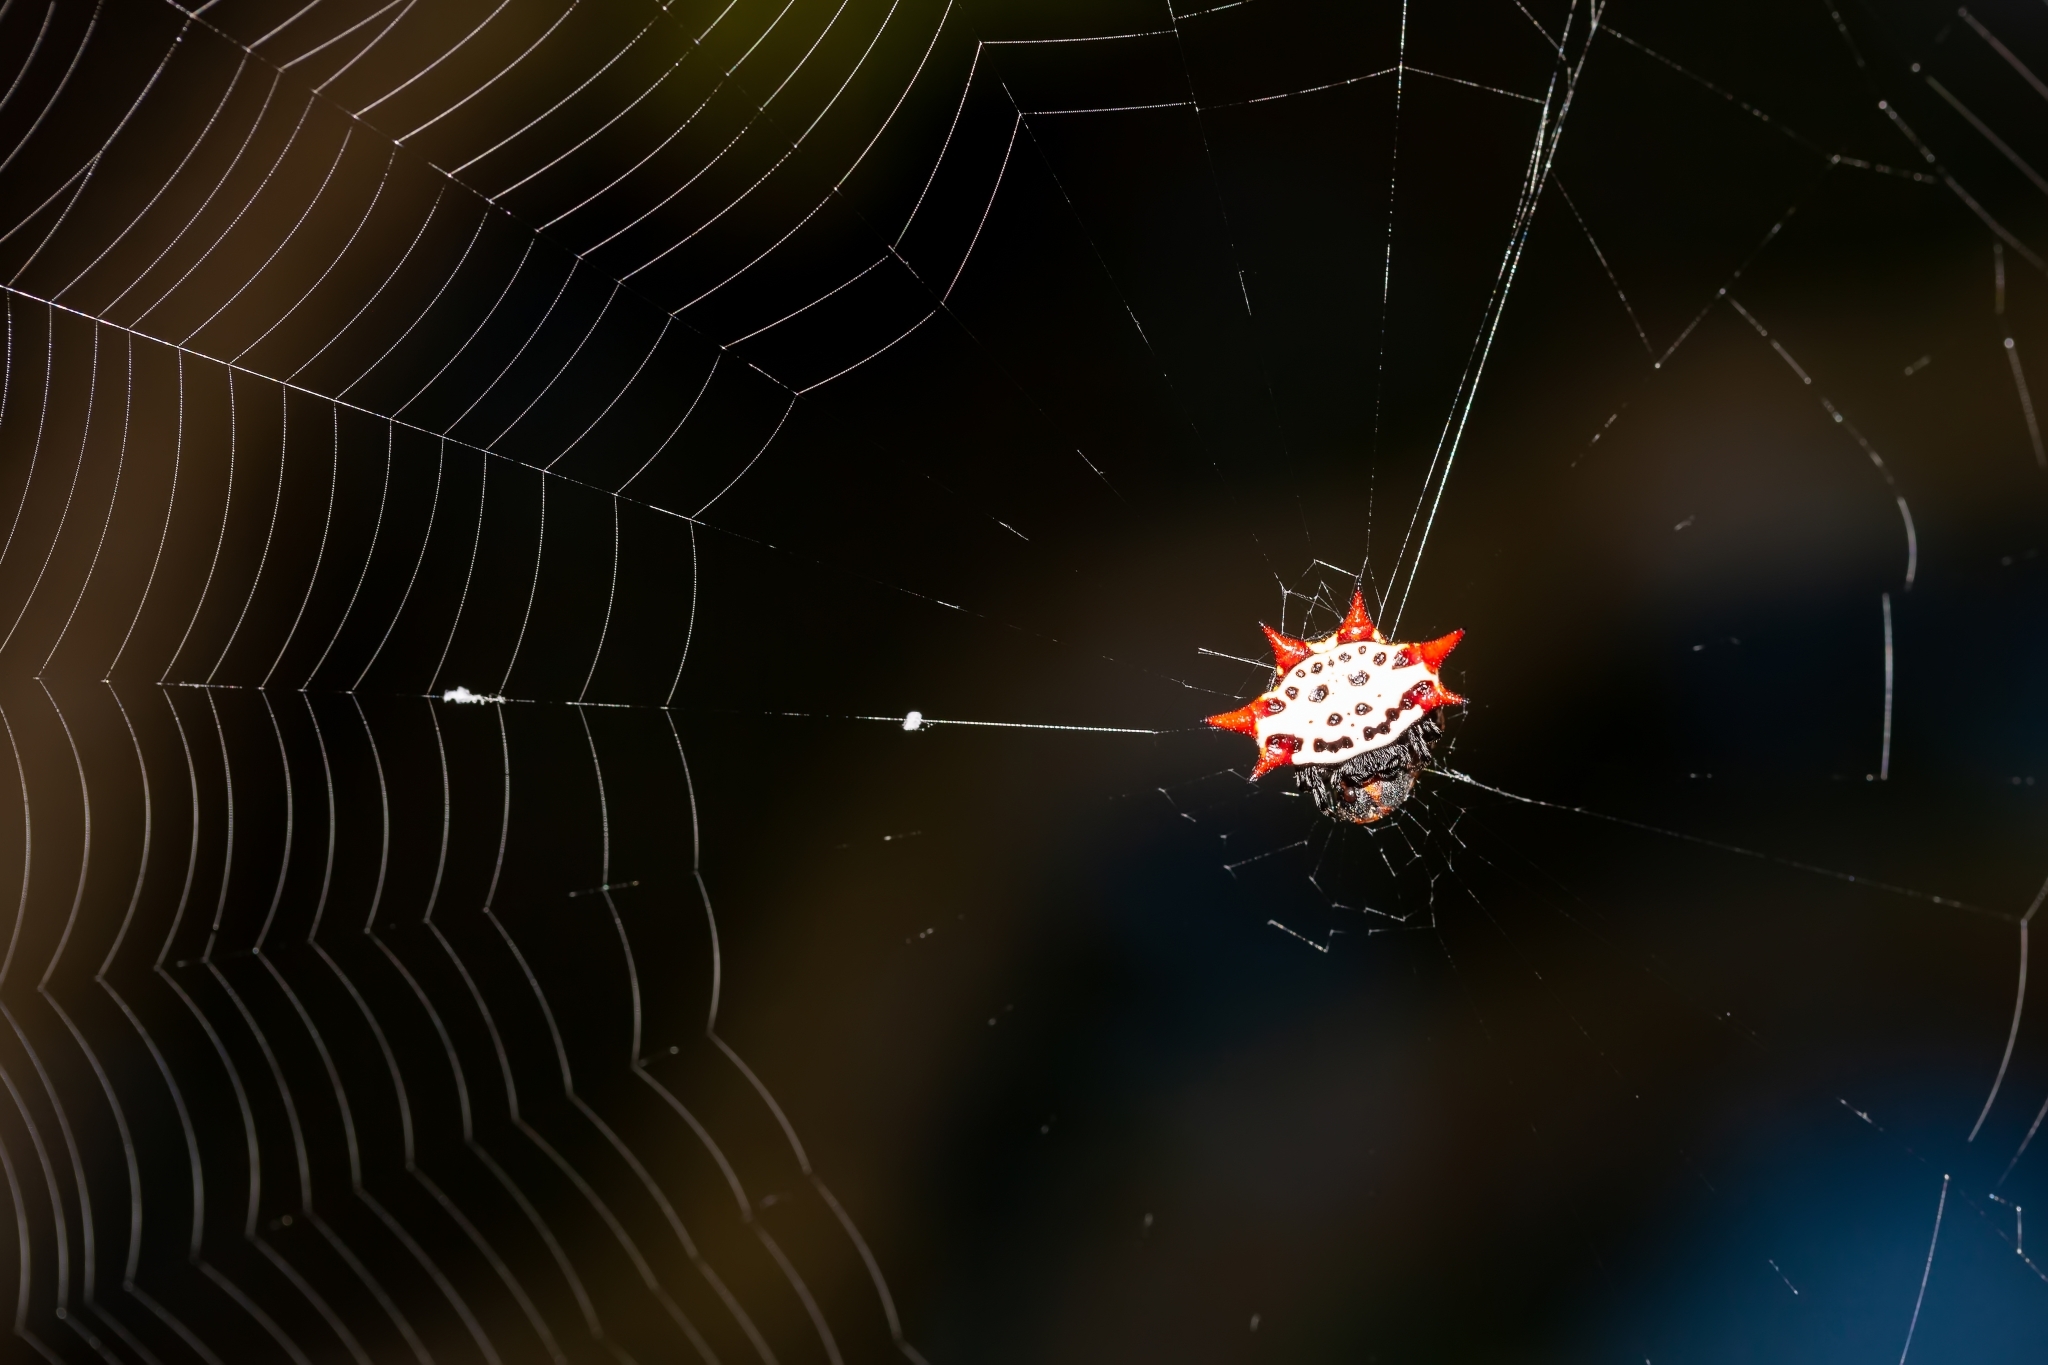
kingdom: Animalia
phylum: Arthropoda
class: Arachnida
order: Araneae
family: Araneidae
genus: Gasteracantha
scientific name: Gasteracantha cancriformis
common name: Orb weavers
